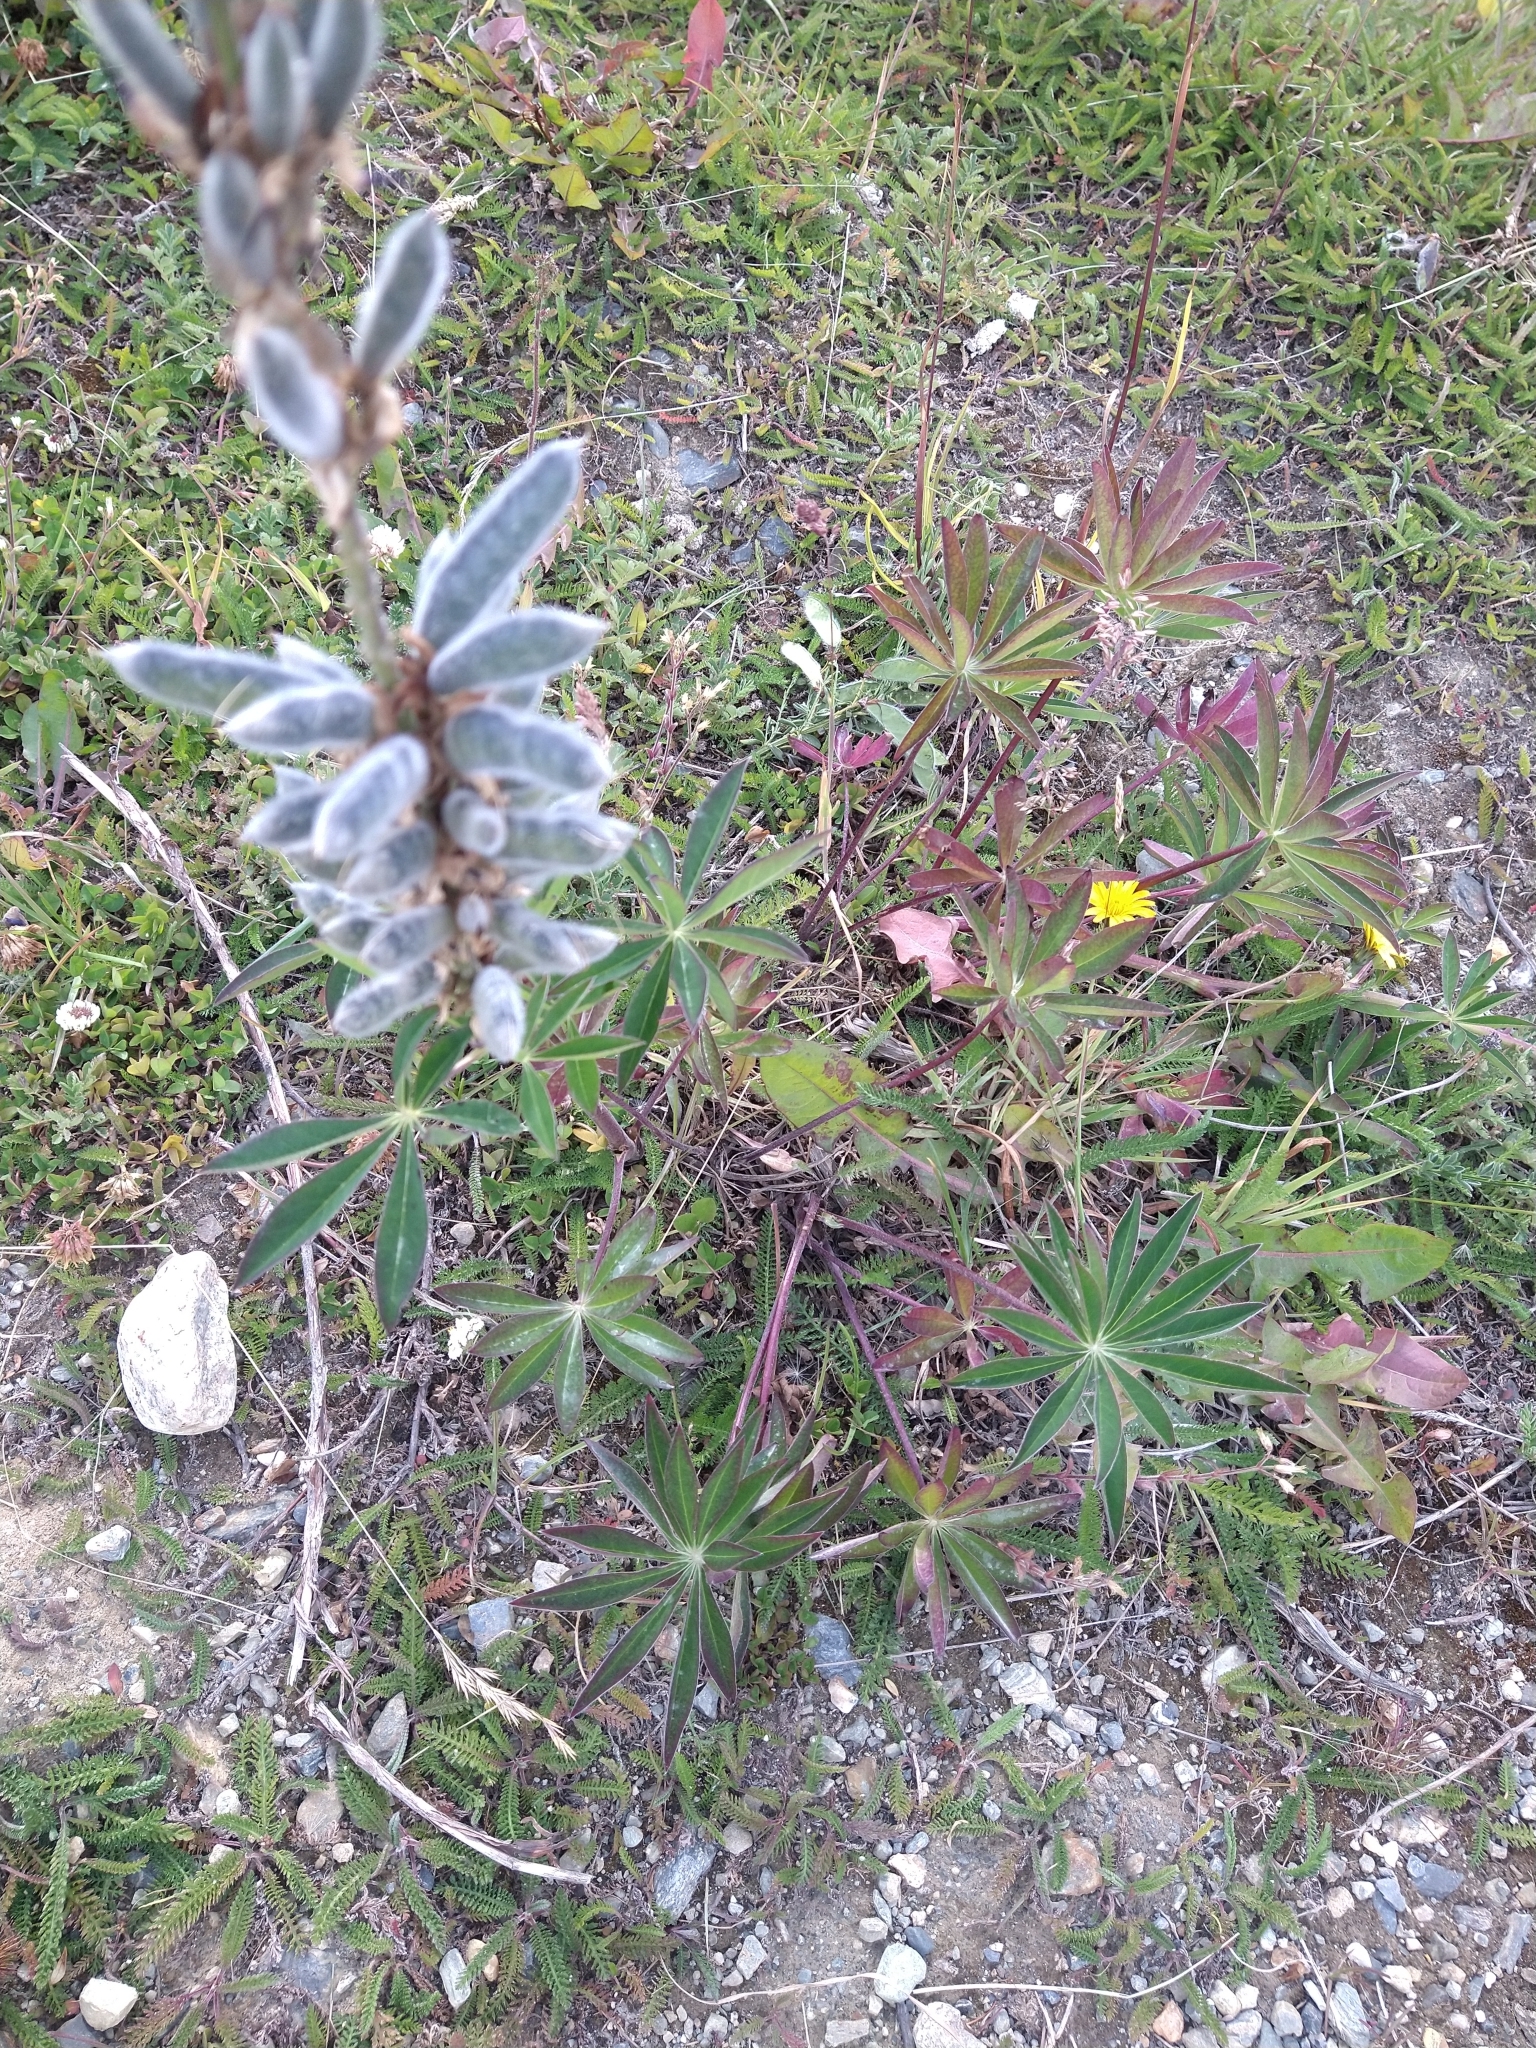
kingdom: Plantae
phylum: Tracheophyta
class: Magnoliopsida
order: Fabales
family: Fabaceae
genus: Lupinus
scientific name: Lupinus polyphyllus
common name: Garden lupin
